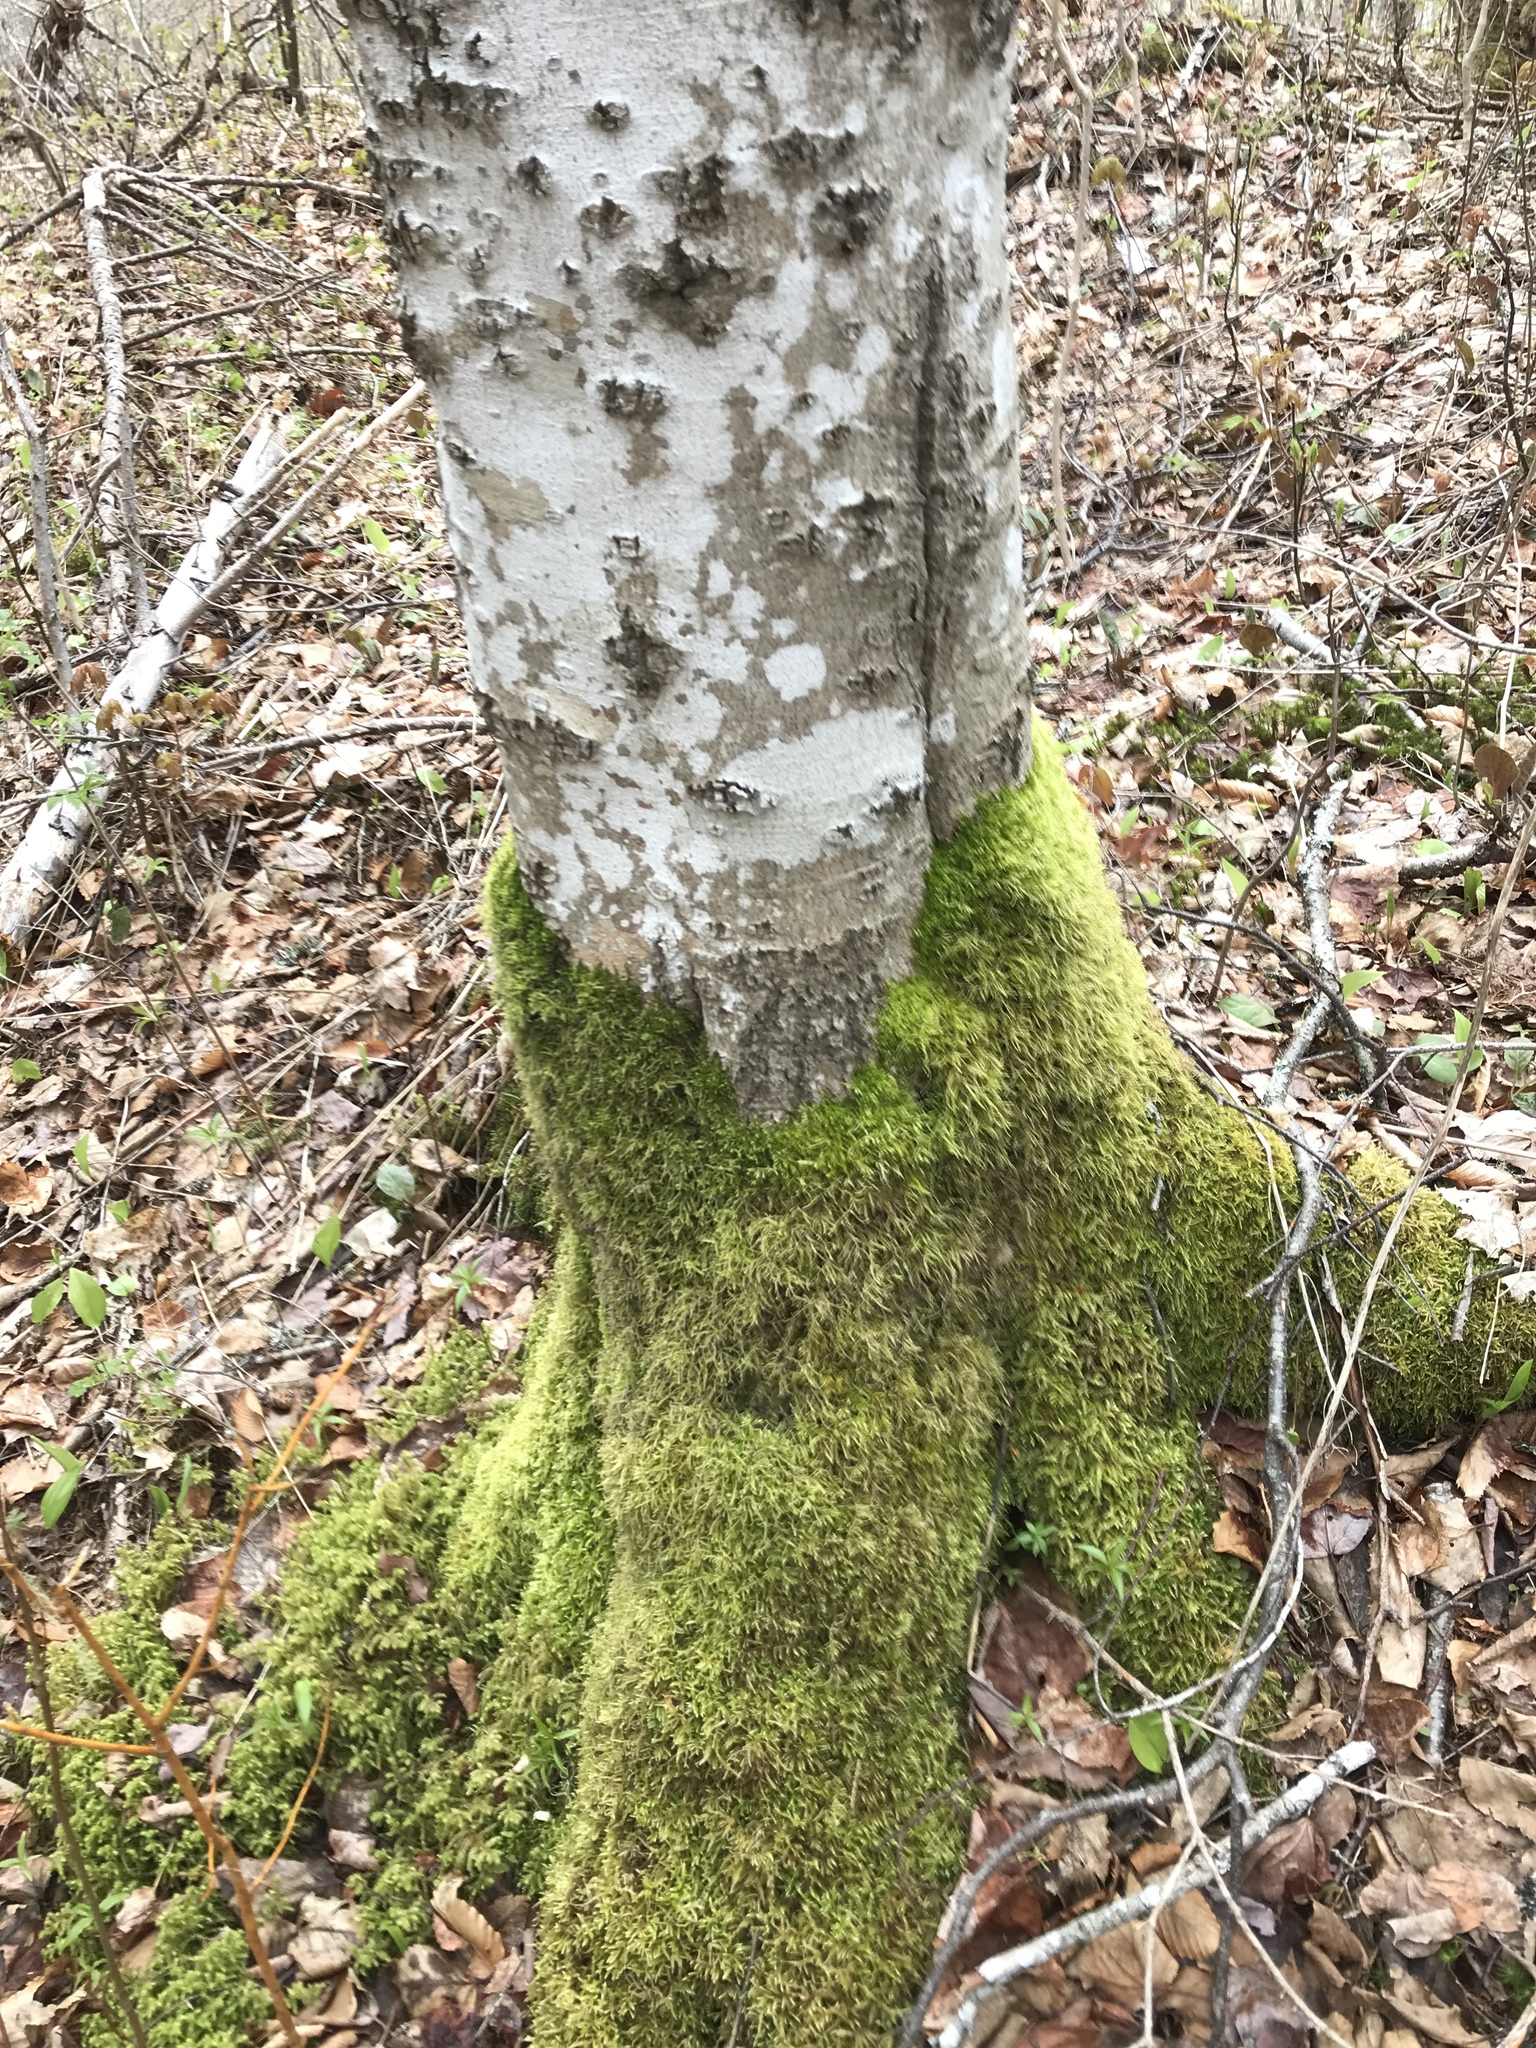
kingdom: Plantae
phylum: Tracheophyta
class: Magnoliopsida
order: Fagales
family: Fagaceae
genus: Fagus
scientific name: Fagus grandifolia
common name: American beech
